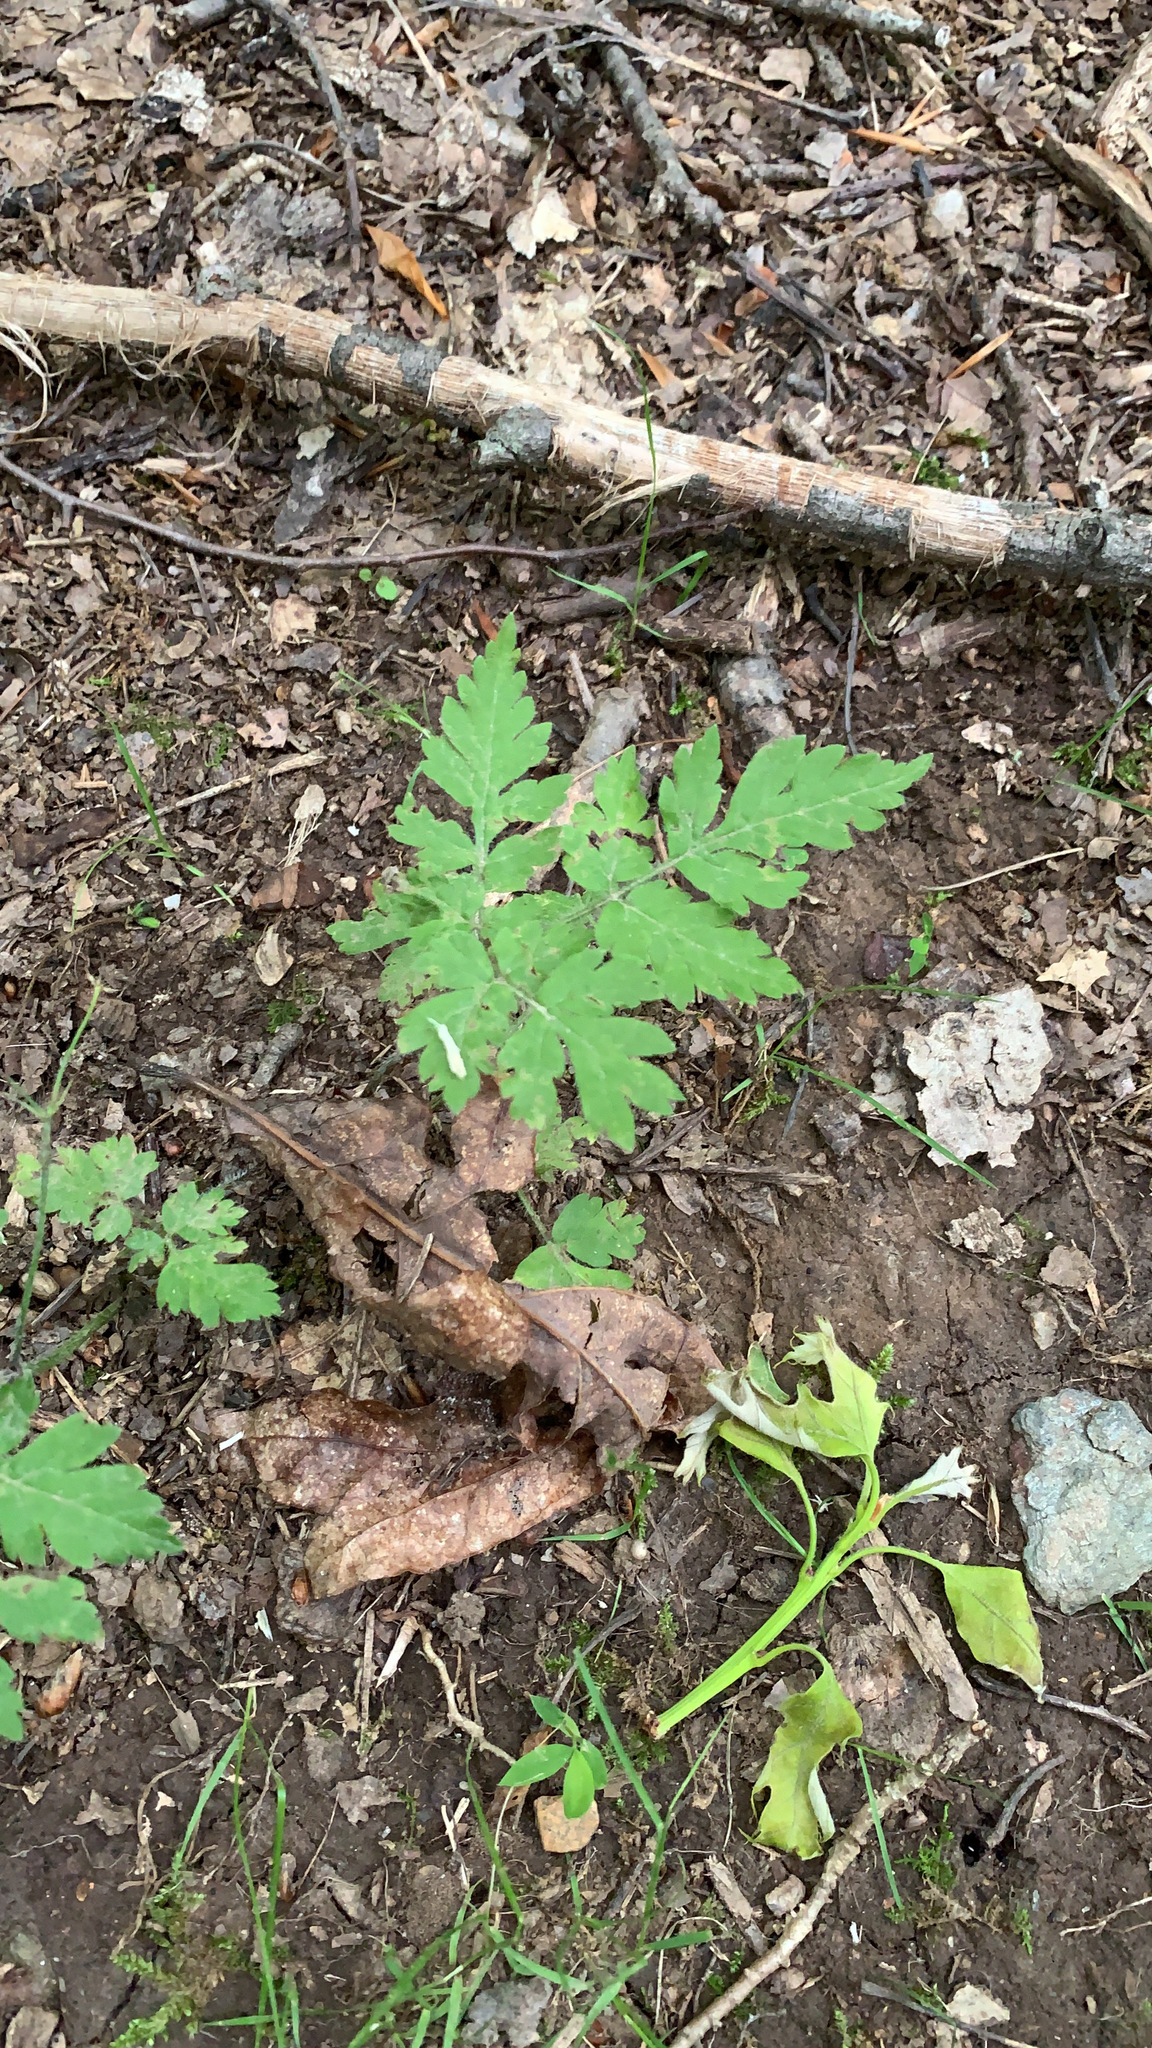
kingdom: Plantae
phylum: Tracheophyta
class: Magnoliopsida
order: Apiales
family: Apiaceae
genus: Osmorhiza
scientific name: Osmorhiza claytonii
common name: Hairy sweet cicely
